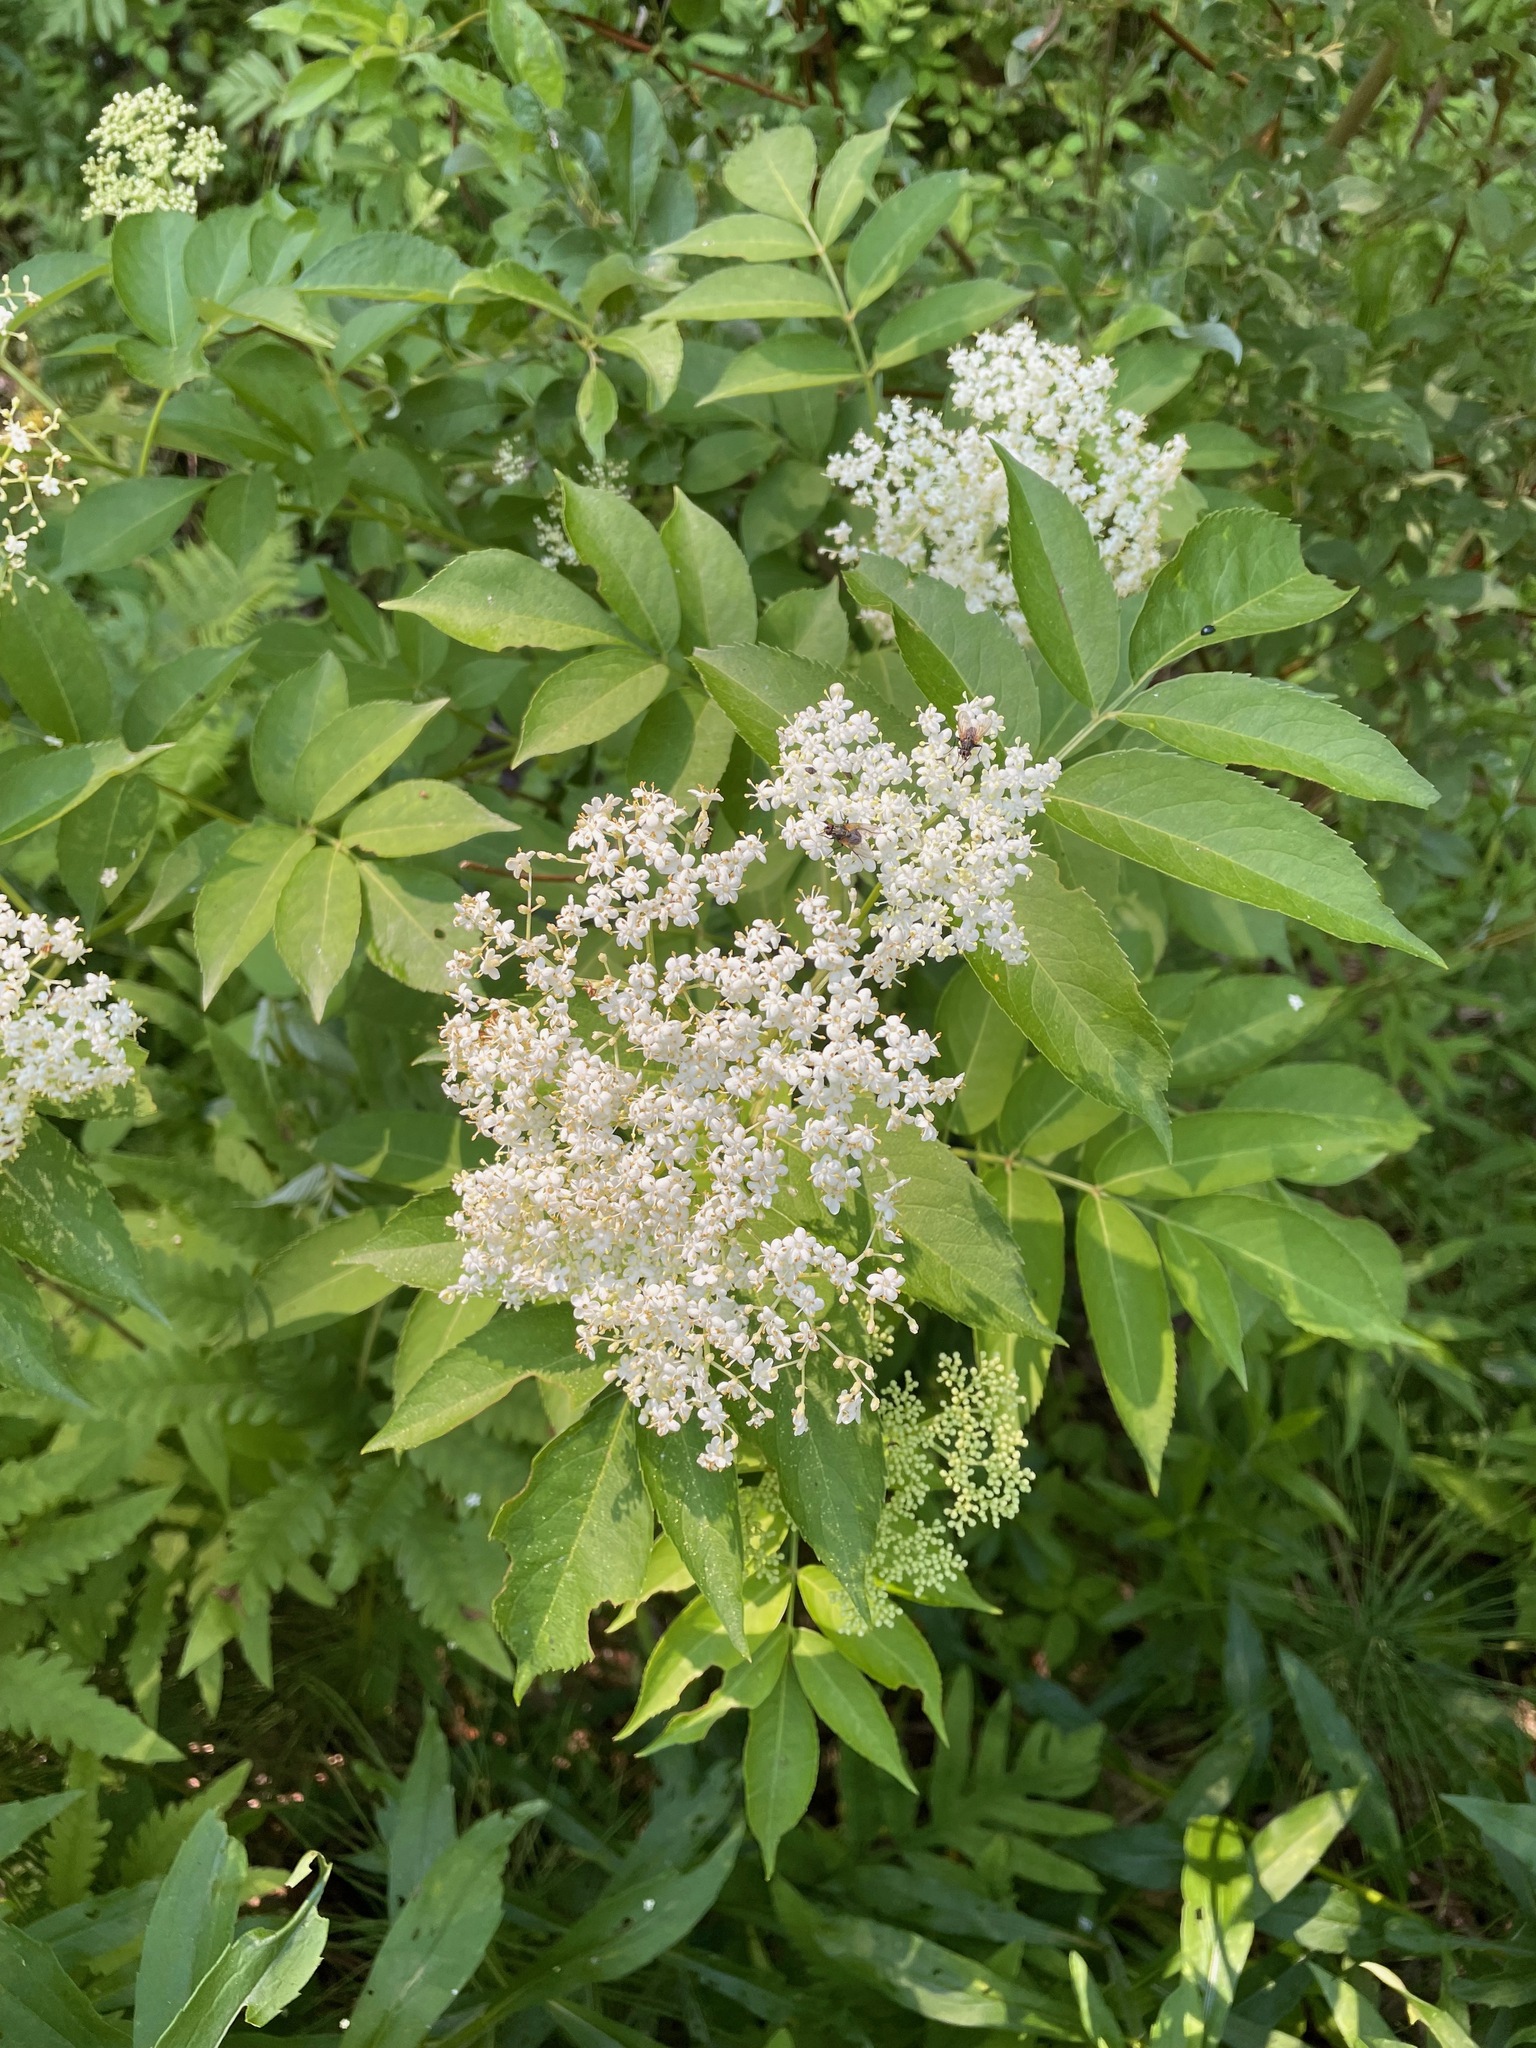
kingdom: Plantae
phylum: Tracheophyta
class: Magnoliopsida
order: Dipsacales
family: Viburnaceae
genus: Sambucus
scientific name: Sambucus canadensis
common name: American elder
